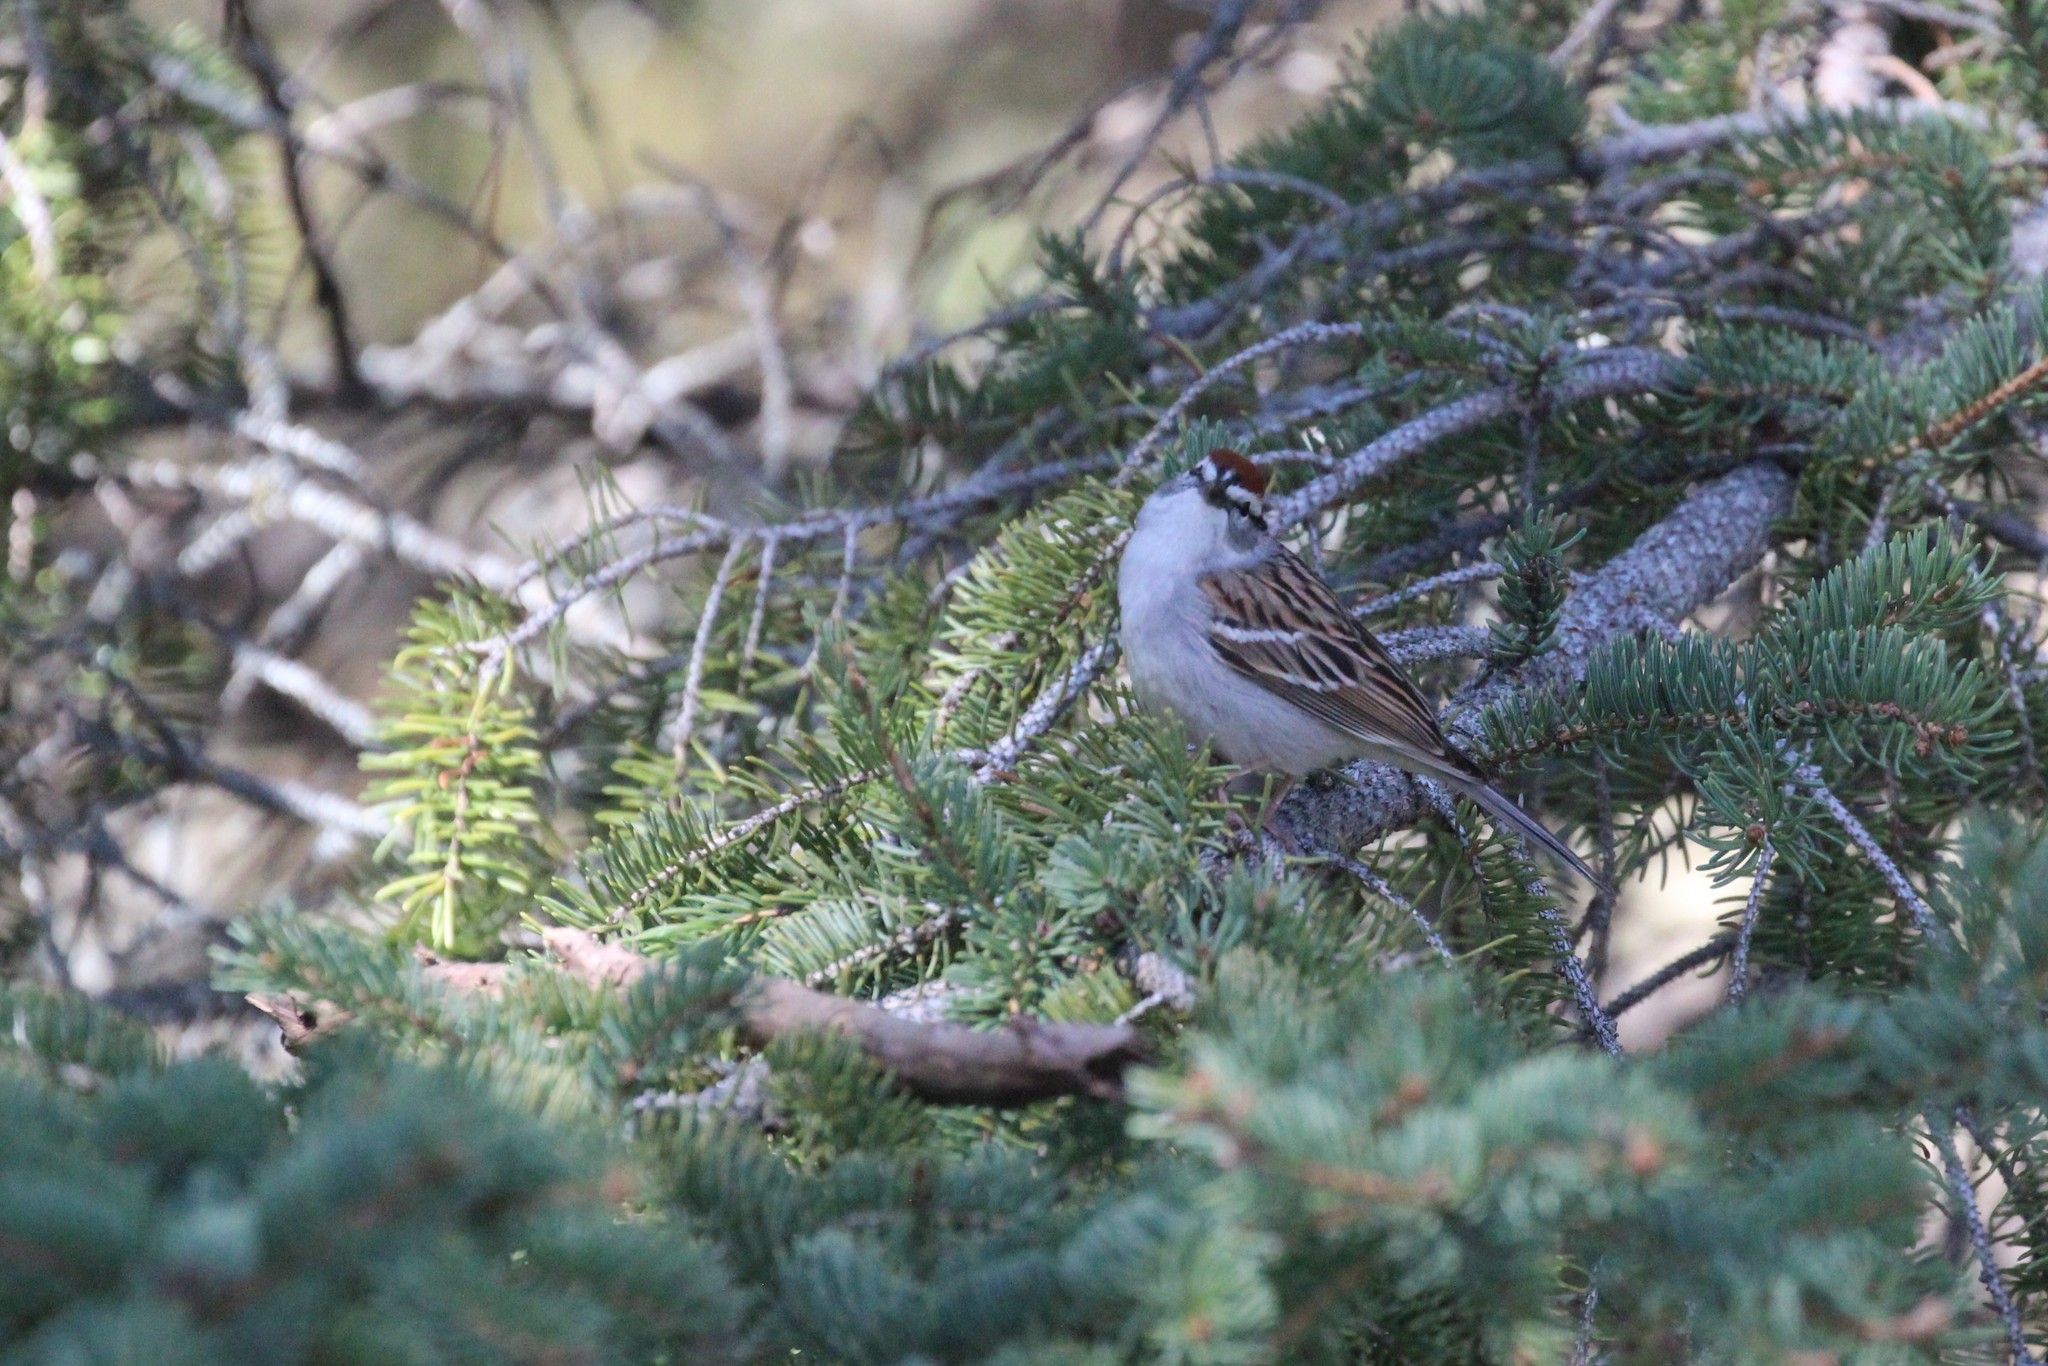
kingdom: Animalia
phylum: Chordata
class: Aves
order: Passeriformes
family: Passerellidae
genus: Spizella
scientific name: Spizella passerina
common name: Chipping sparrow
